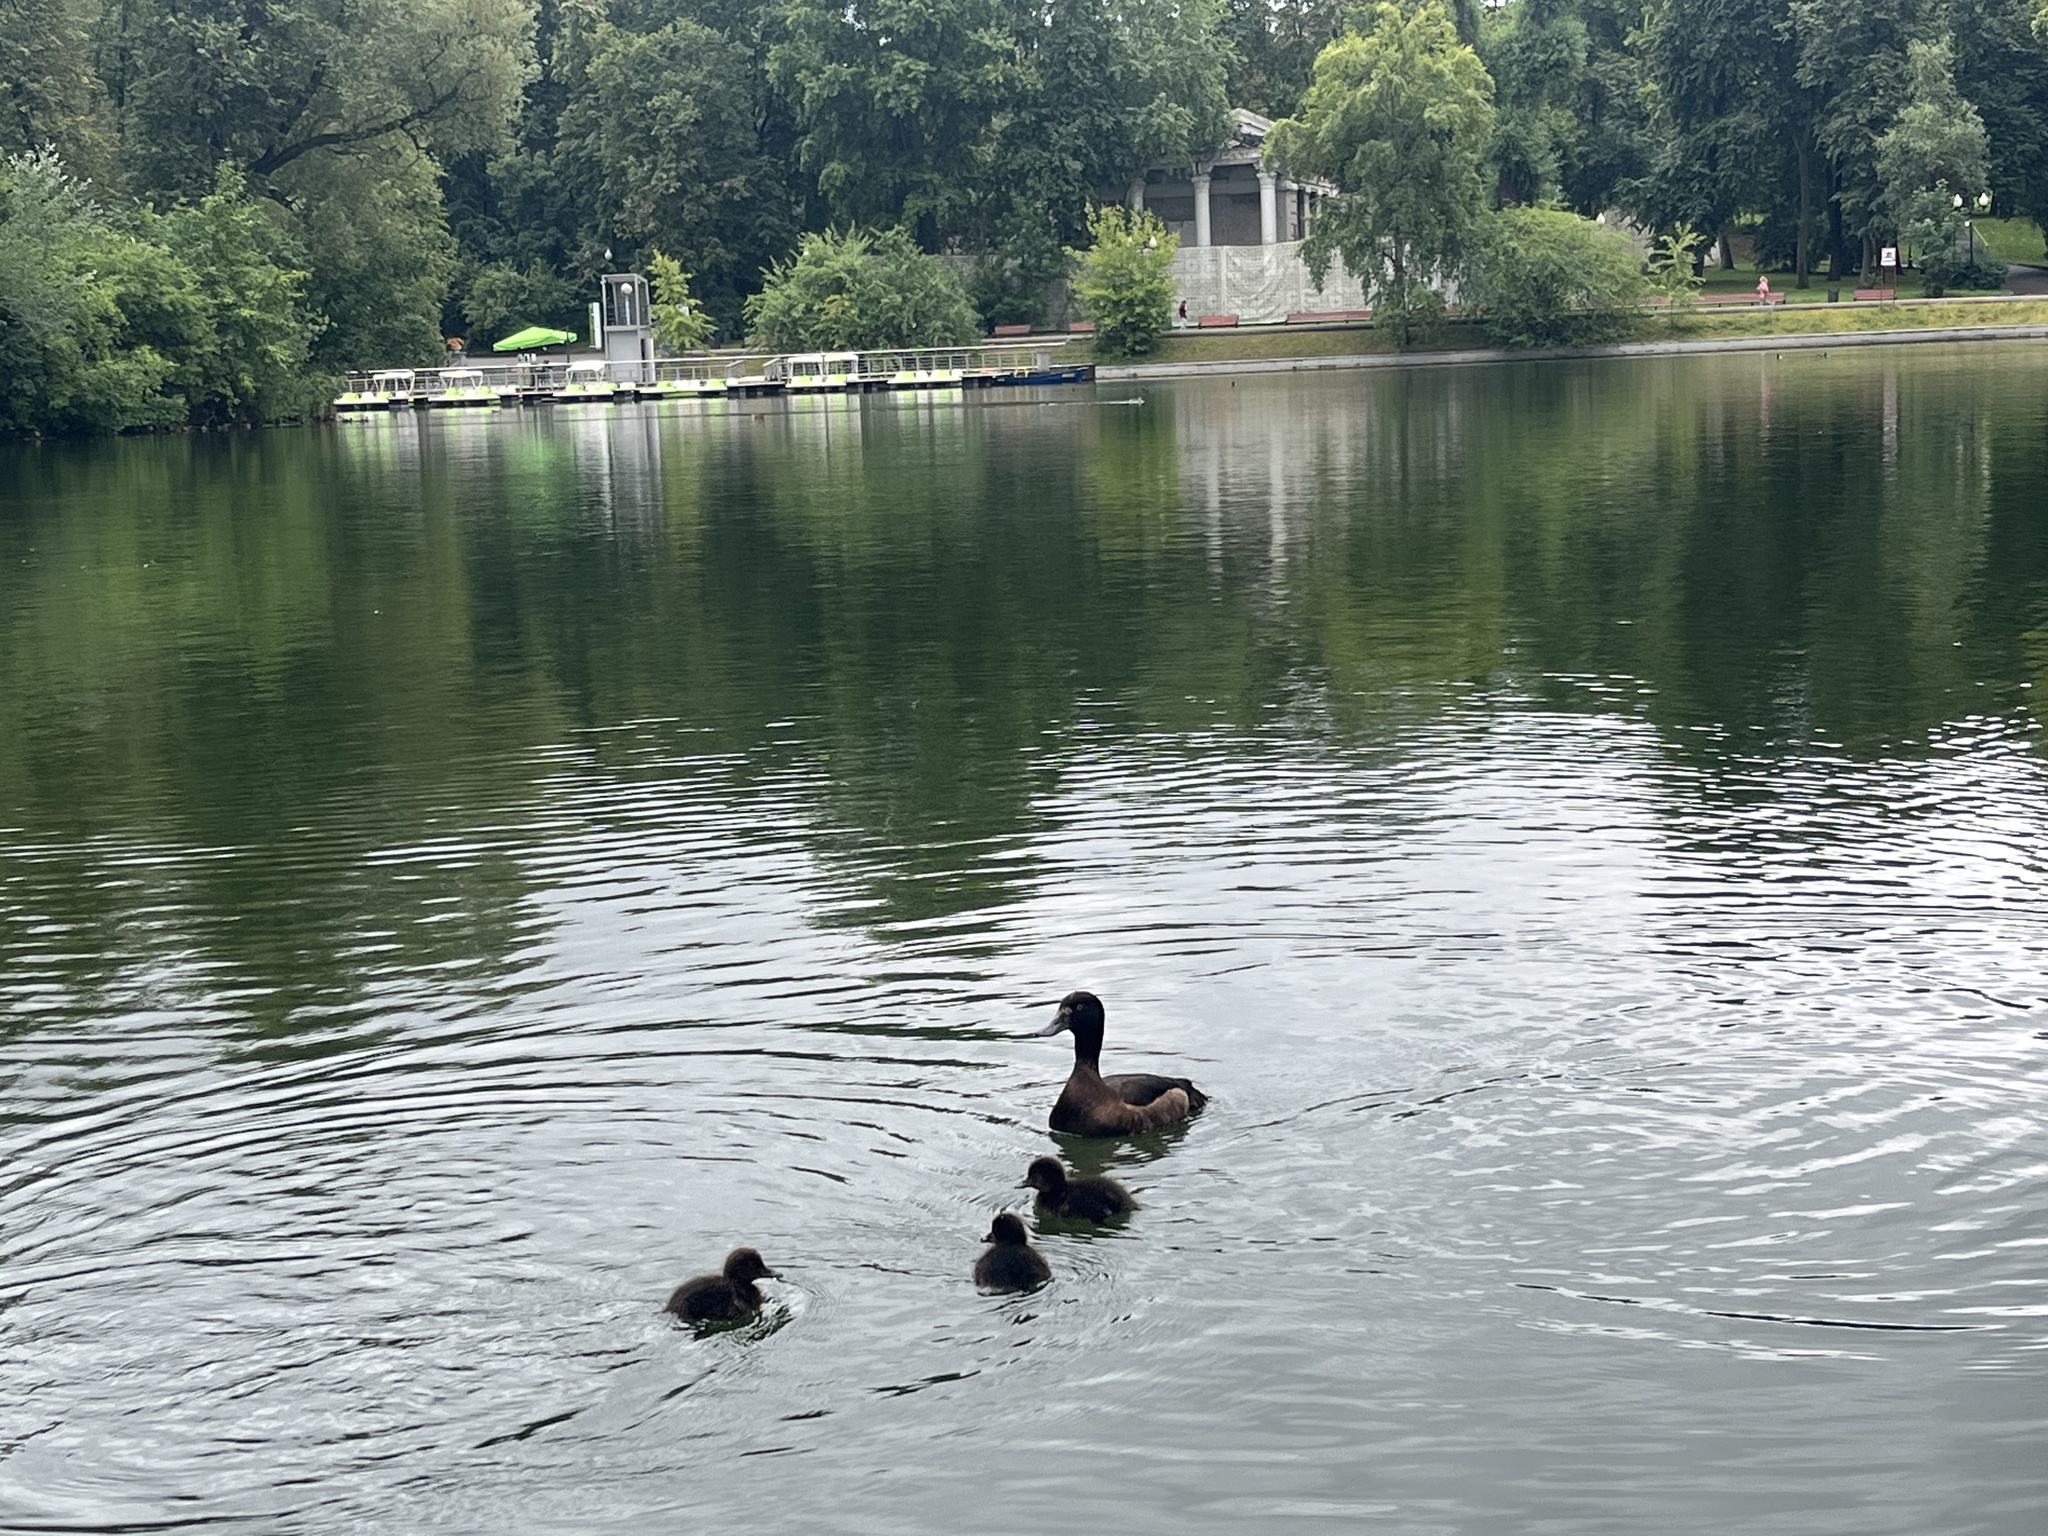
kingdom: Animalia
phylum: Chordata
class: Aves
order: Anseriformes
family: Anatidae
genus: Aythya
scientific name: Aythya fuligula
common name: Tufted duck
